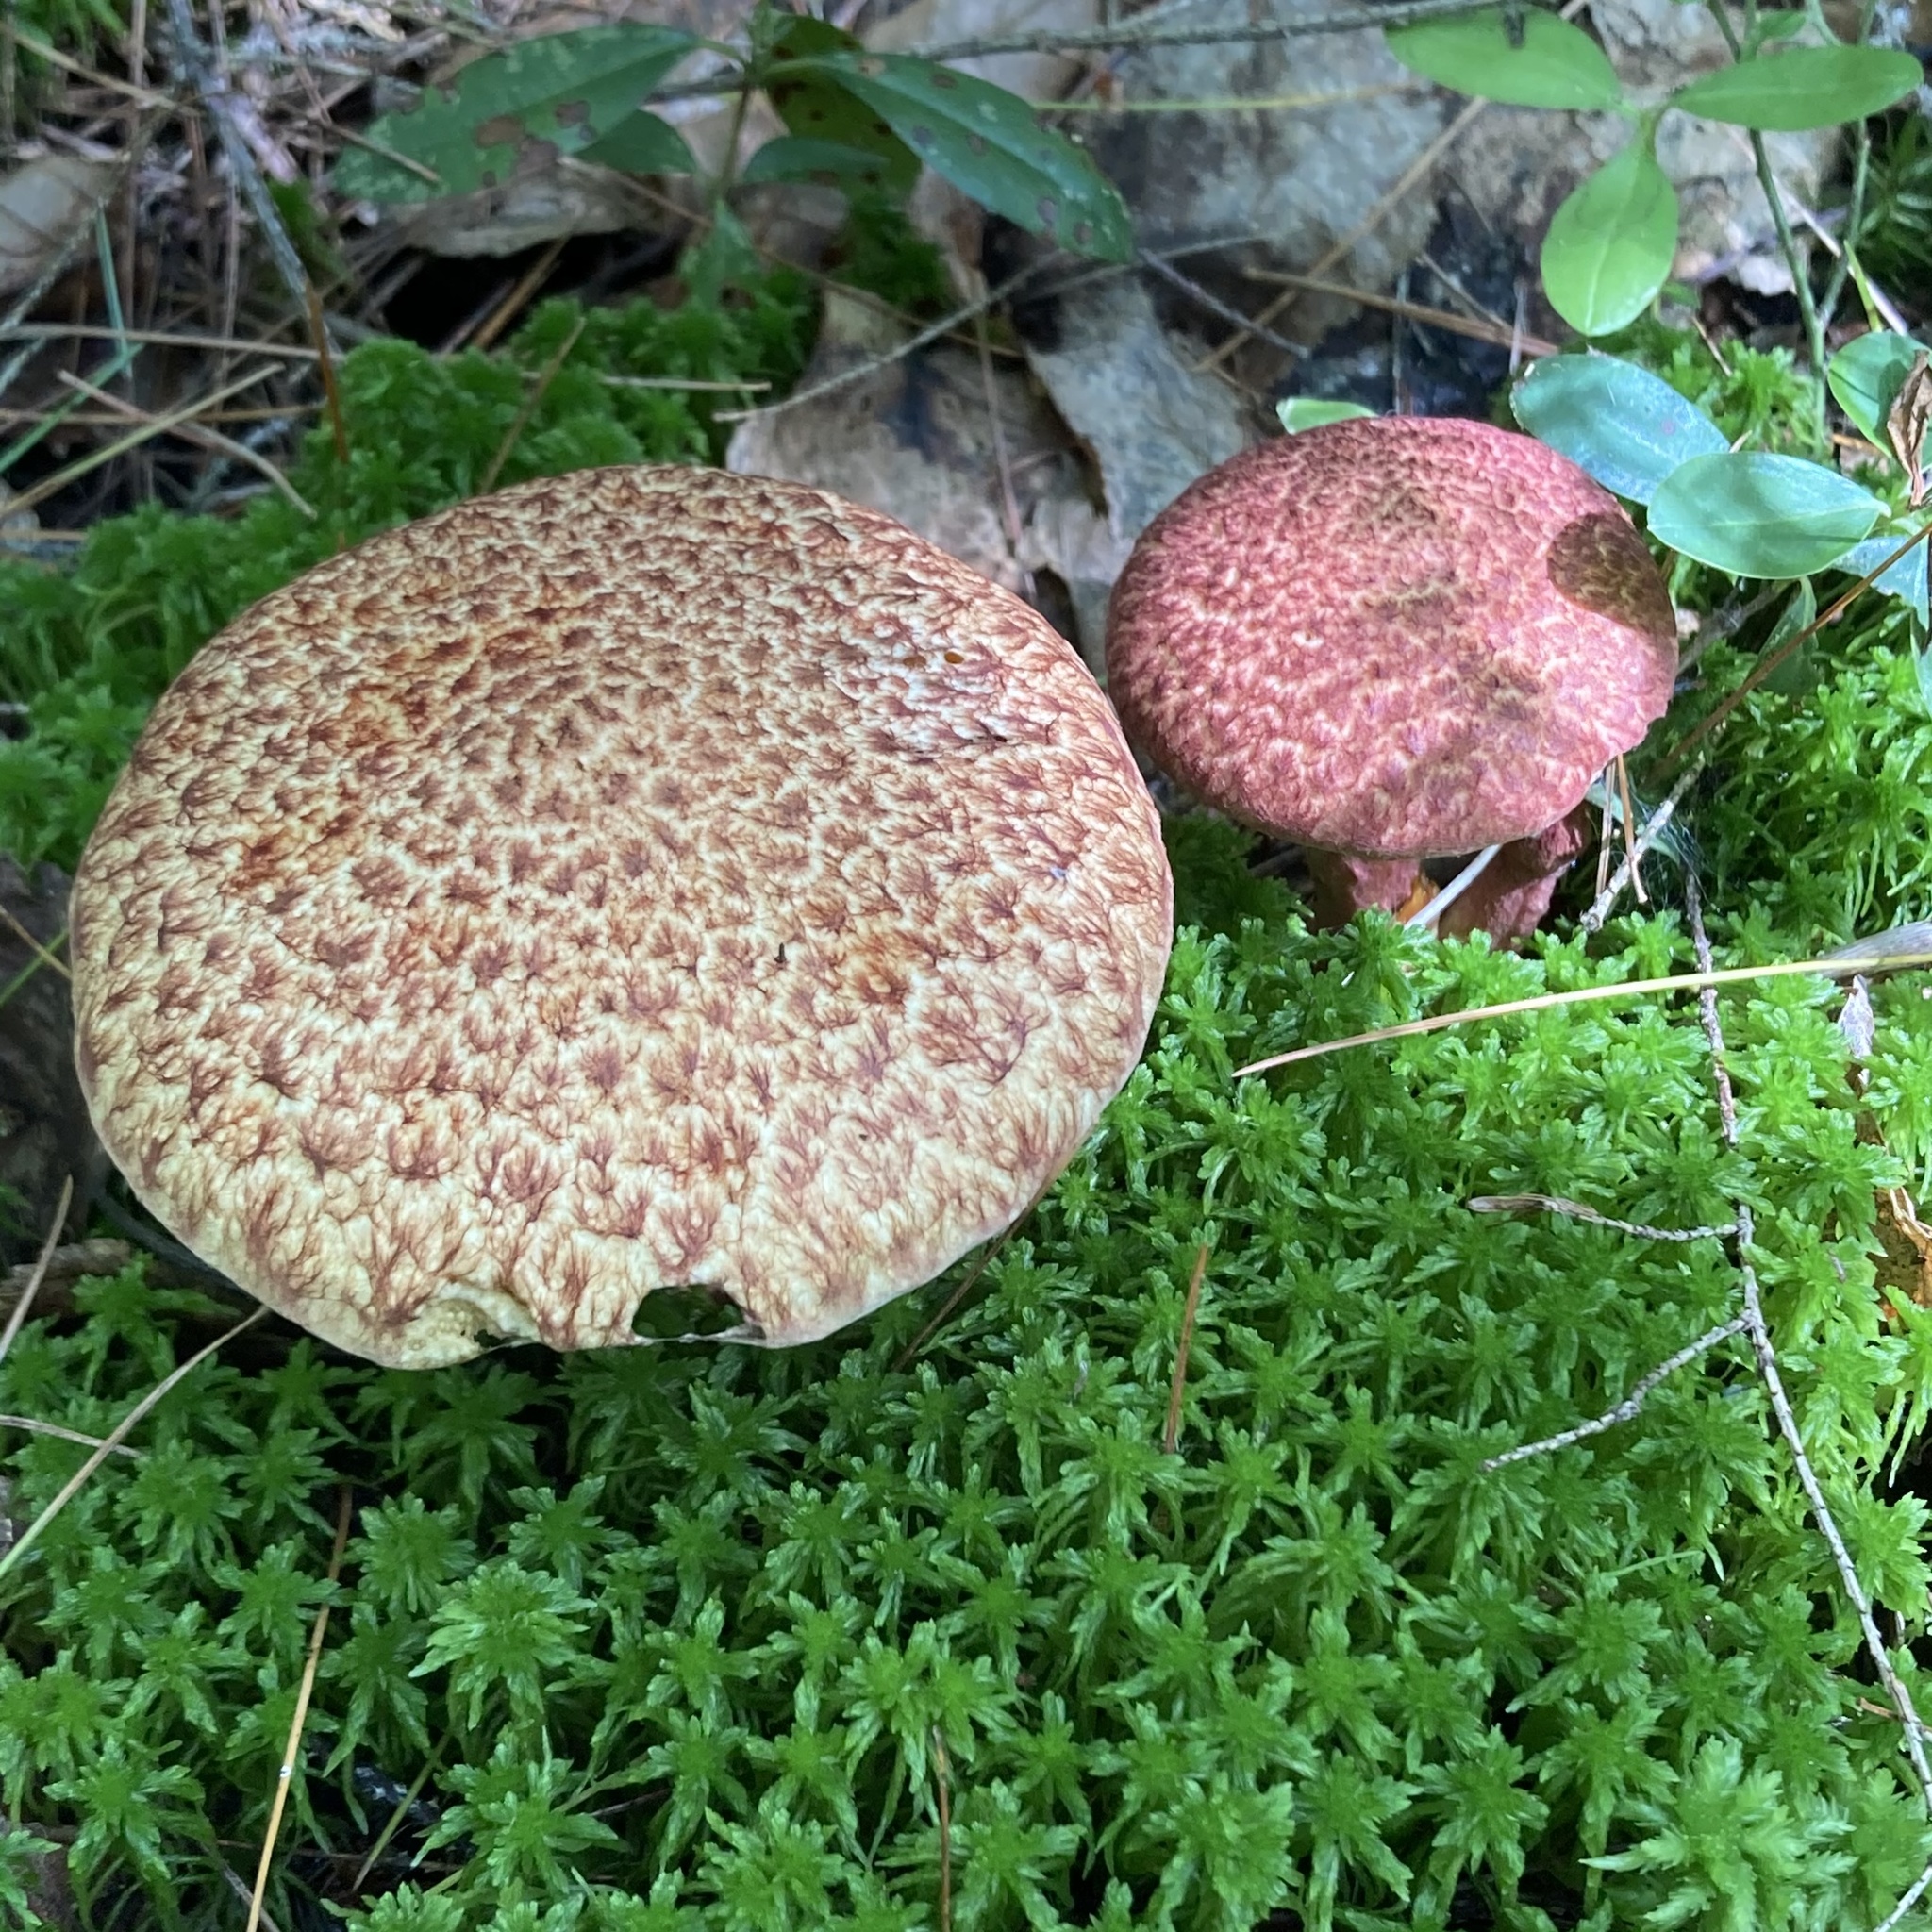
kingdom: Fungi
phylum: Basidiomycota
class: Agaricomycetes
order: Boletales
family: Suillaceae
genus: Suillus
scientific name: Suillus spraguei
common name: Painted suillus
